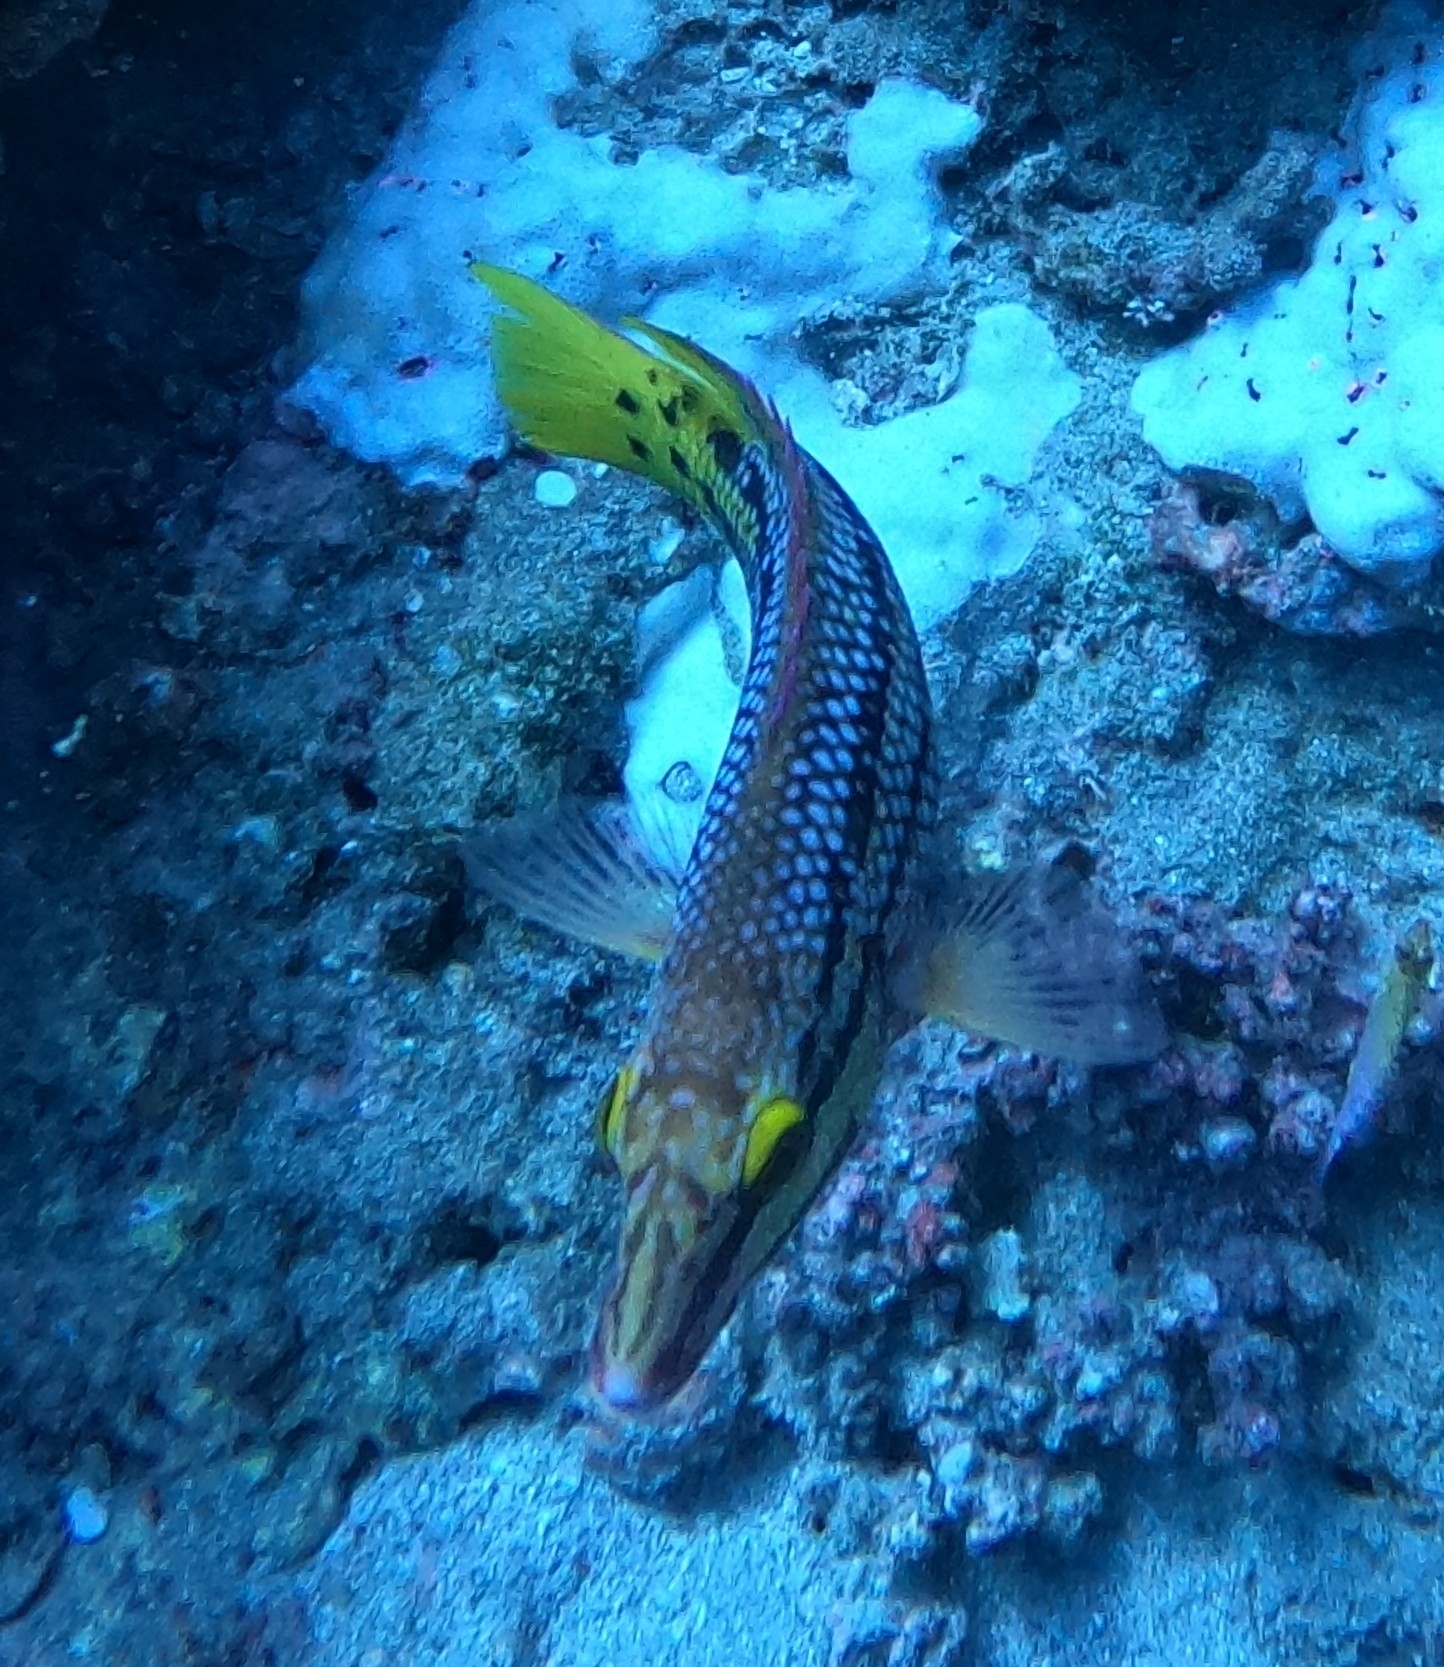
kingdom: Animalia
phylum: Chordata
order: Perciformes
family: Labridae
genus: Bodianus
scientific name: Bodianus diplotaenia
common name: Mexican hogfish
